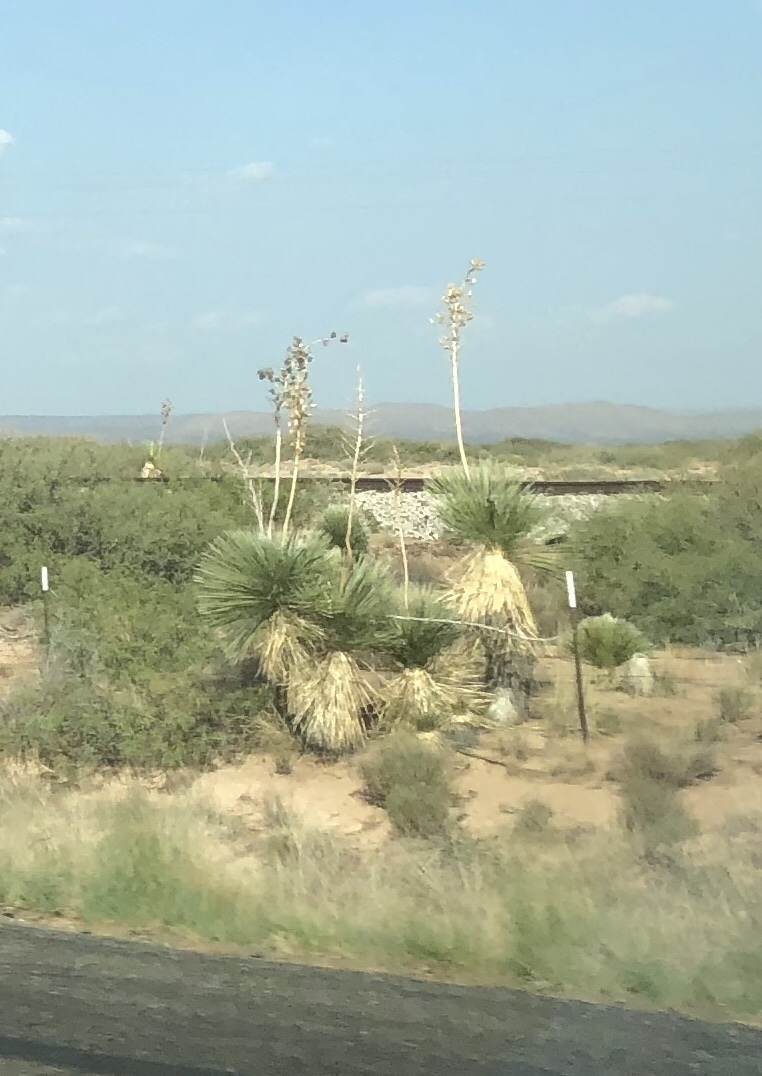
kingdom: Plantae
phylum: Tracheophyta
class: Liliopsida
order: Asparagales
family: Asparagaceae
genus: Yucca
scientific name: Yucca elata
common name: Palmella
